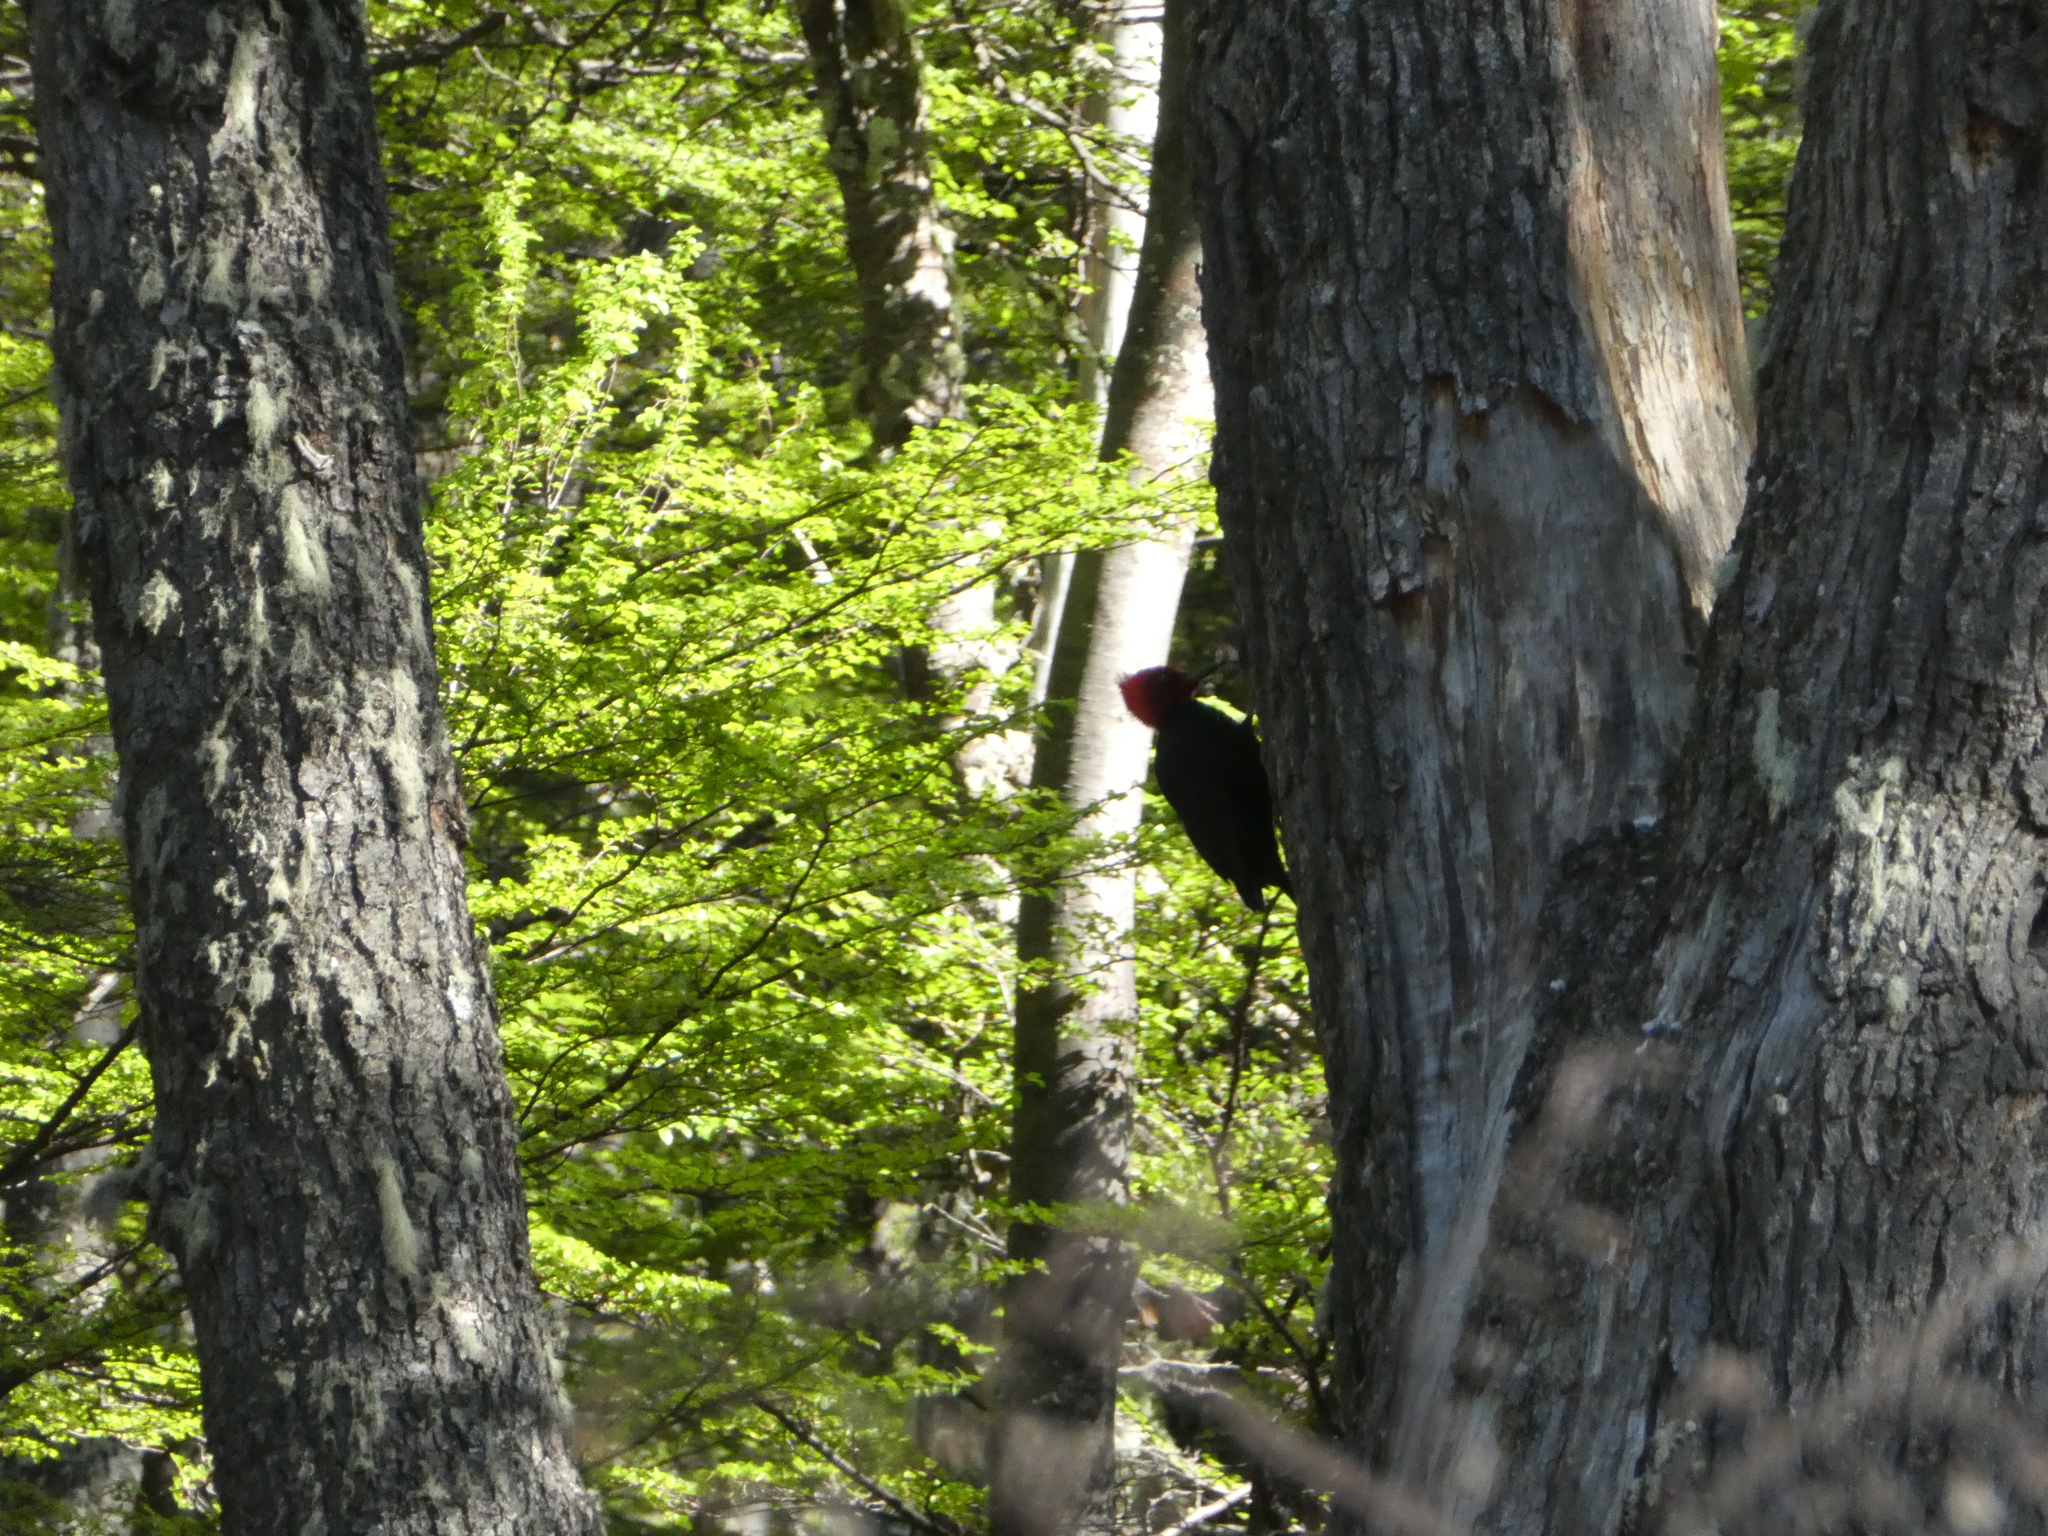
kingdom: Animalia
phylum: Chordata
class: Aves
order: Piciformes
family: Picidae
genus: Campephilus
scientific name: Campephilus magellanicus
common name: Magellanic woodpecker
